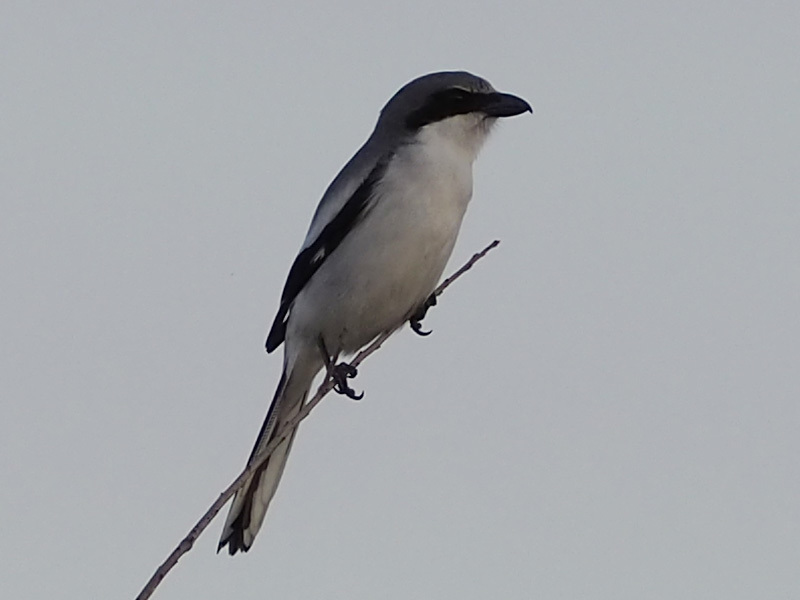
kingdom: Animalia
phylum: Chordata
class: Aves
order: Passeriformes
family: Laniidae
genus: Lanius
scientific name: Lanius ludovicianus
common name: Loggerhead shrike
